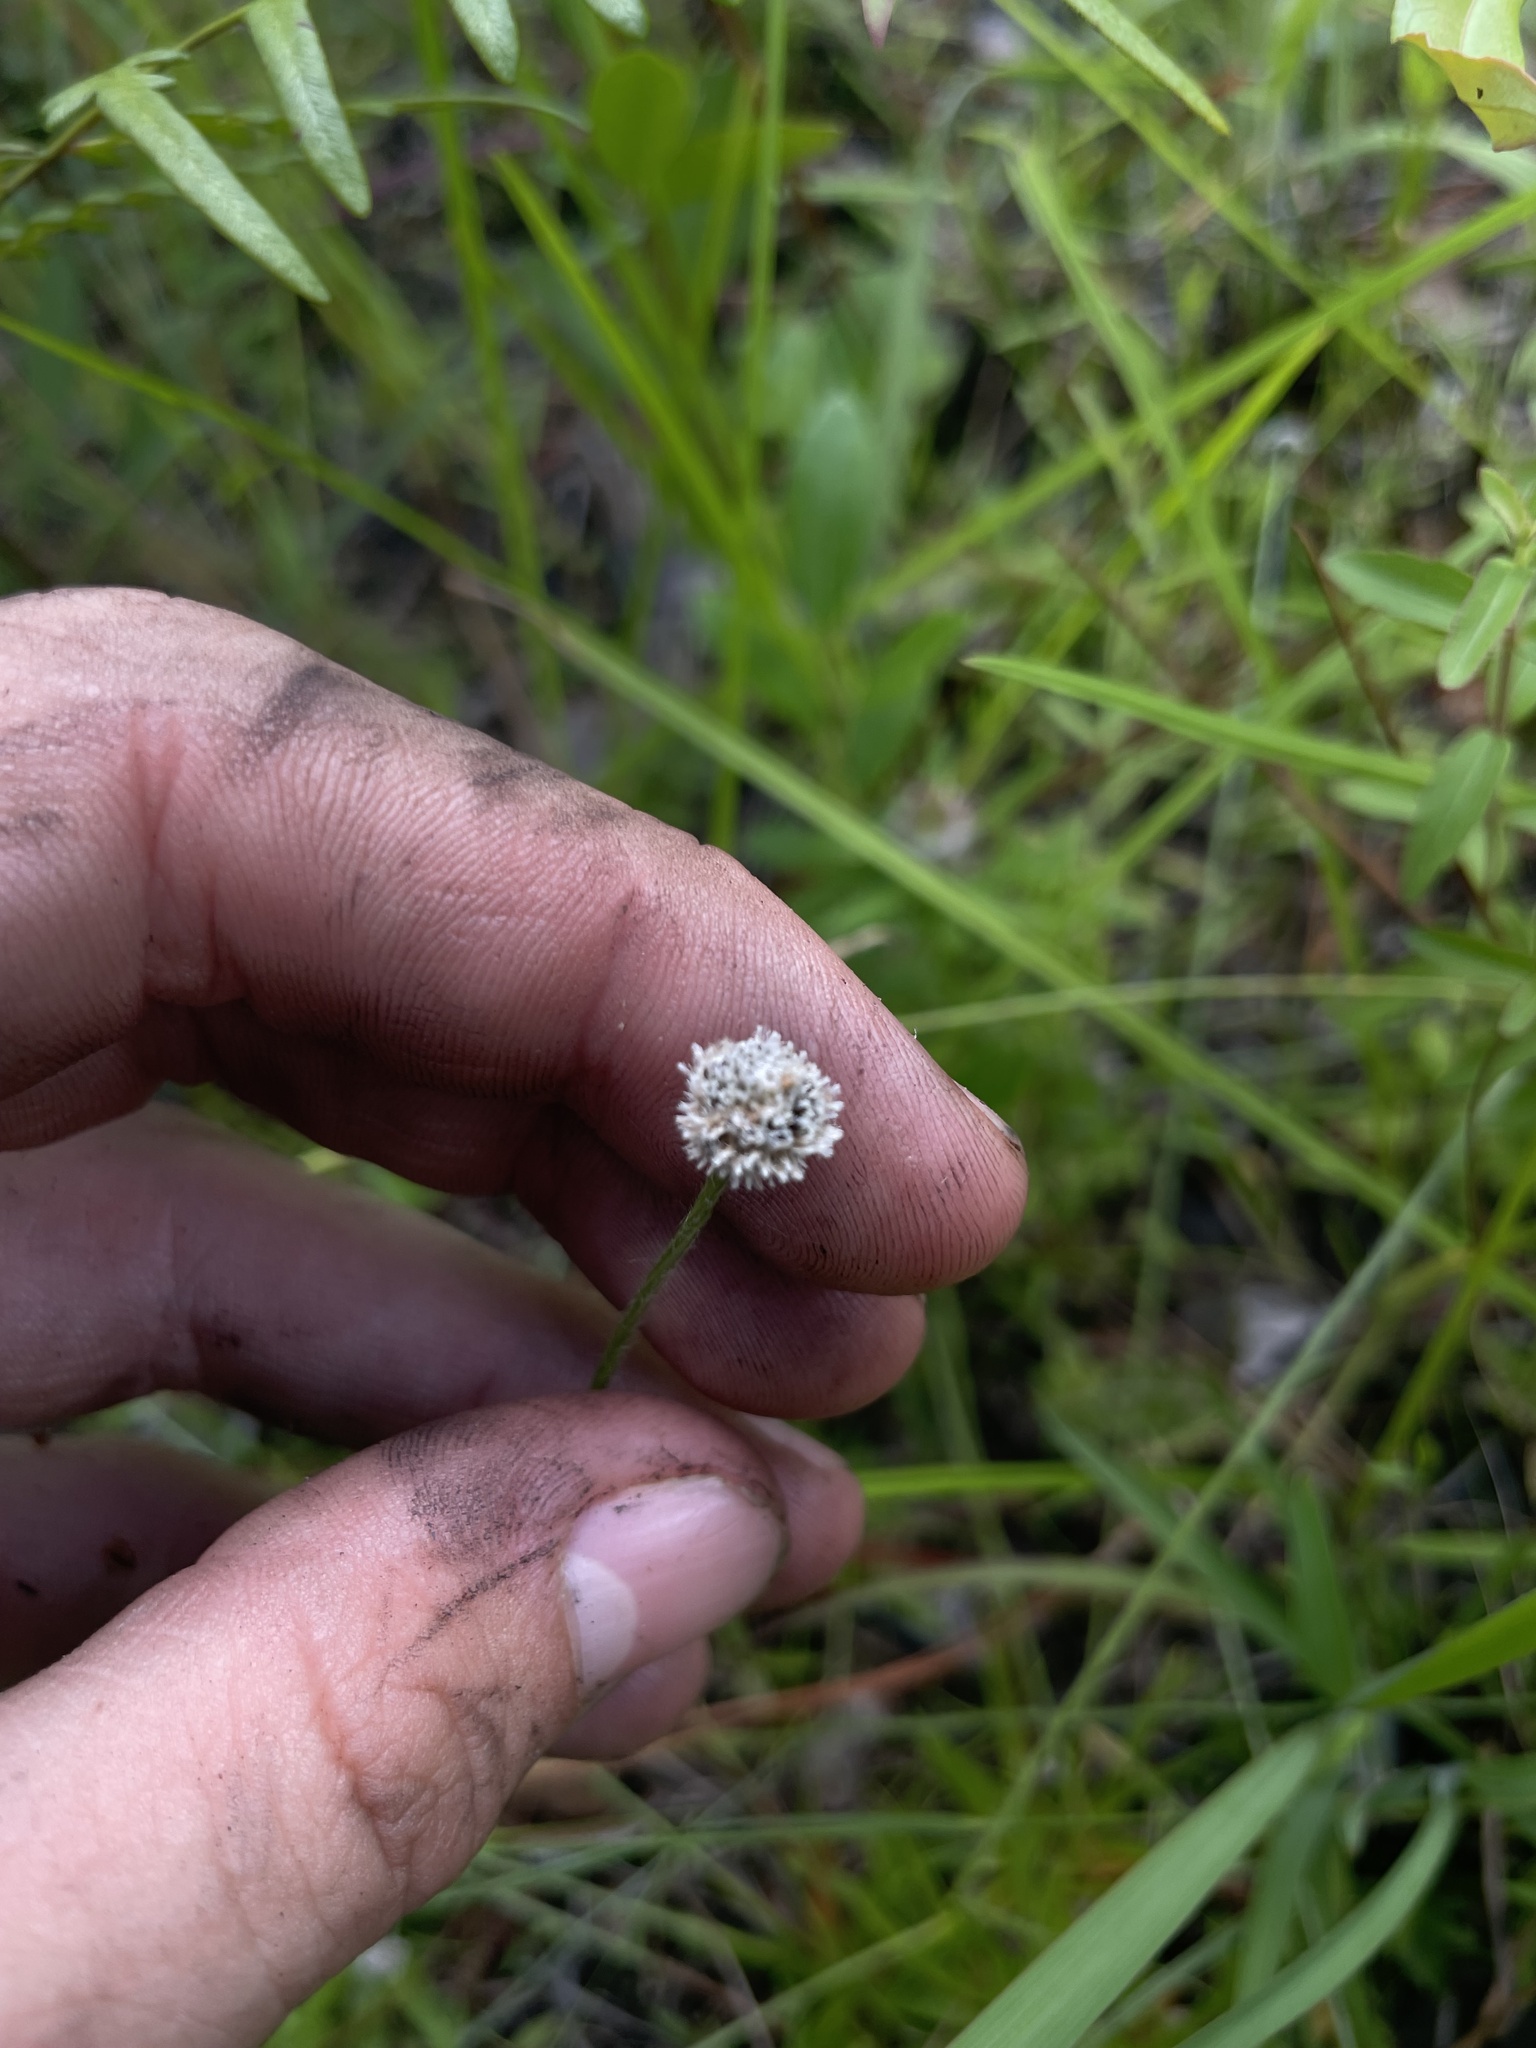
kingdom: Plantae
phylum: Tracheophyta
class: Liliopsida
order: Poales
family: Eriocaulaceae
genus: Paepalanthus
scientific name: Paepalanthus anceps
